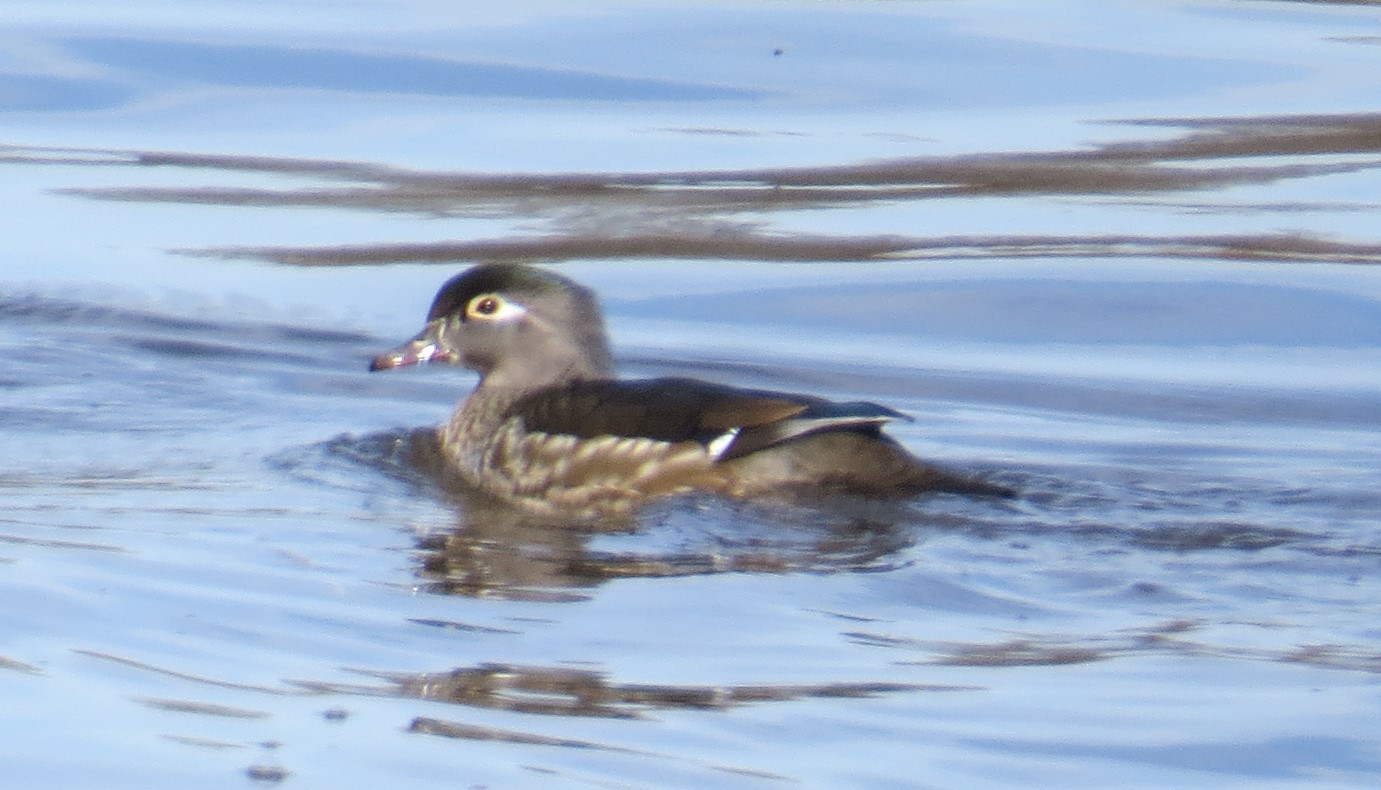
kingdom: Animalia
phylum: Chordata
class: Aves
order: Anseriformes
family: Anatidae
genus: Aix
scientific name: Aix sponsa
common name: Wood duck
